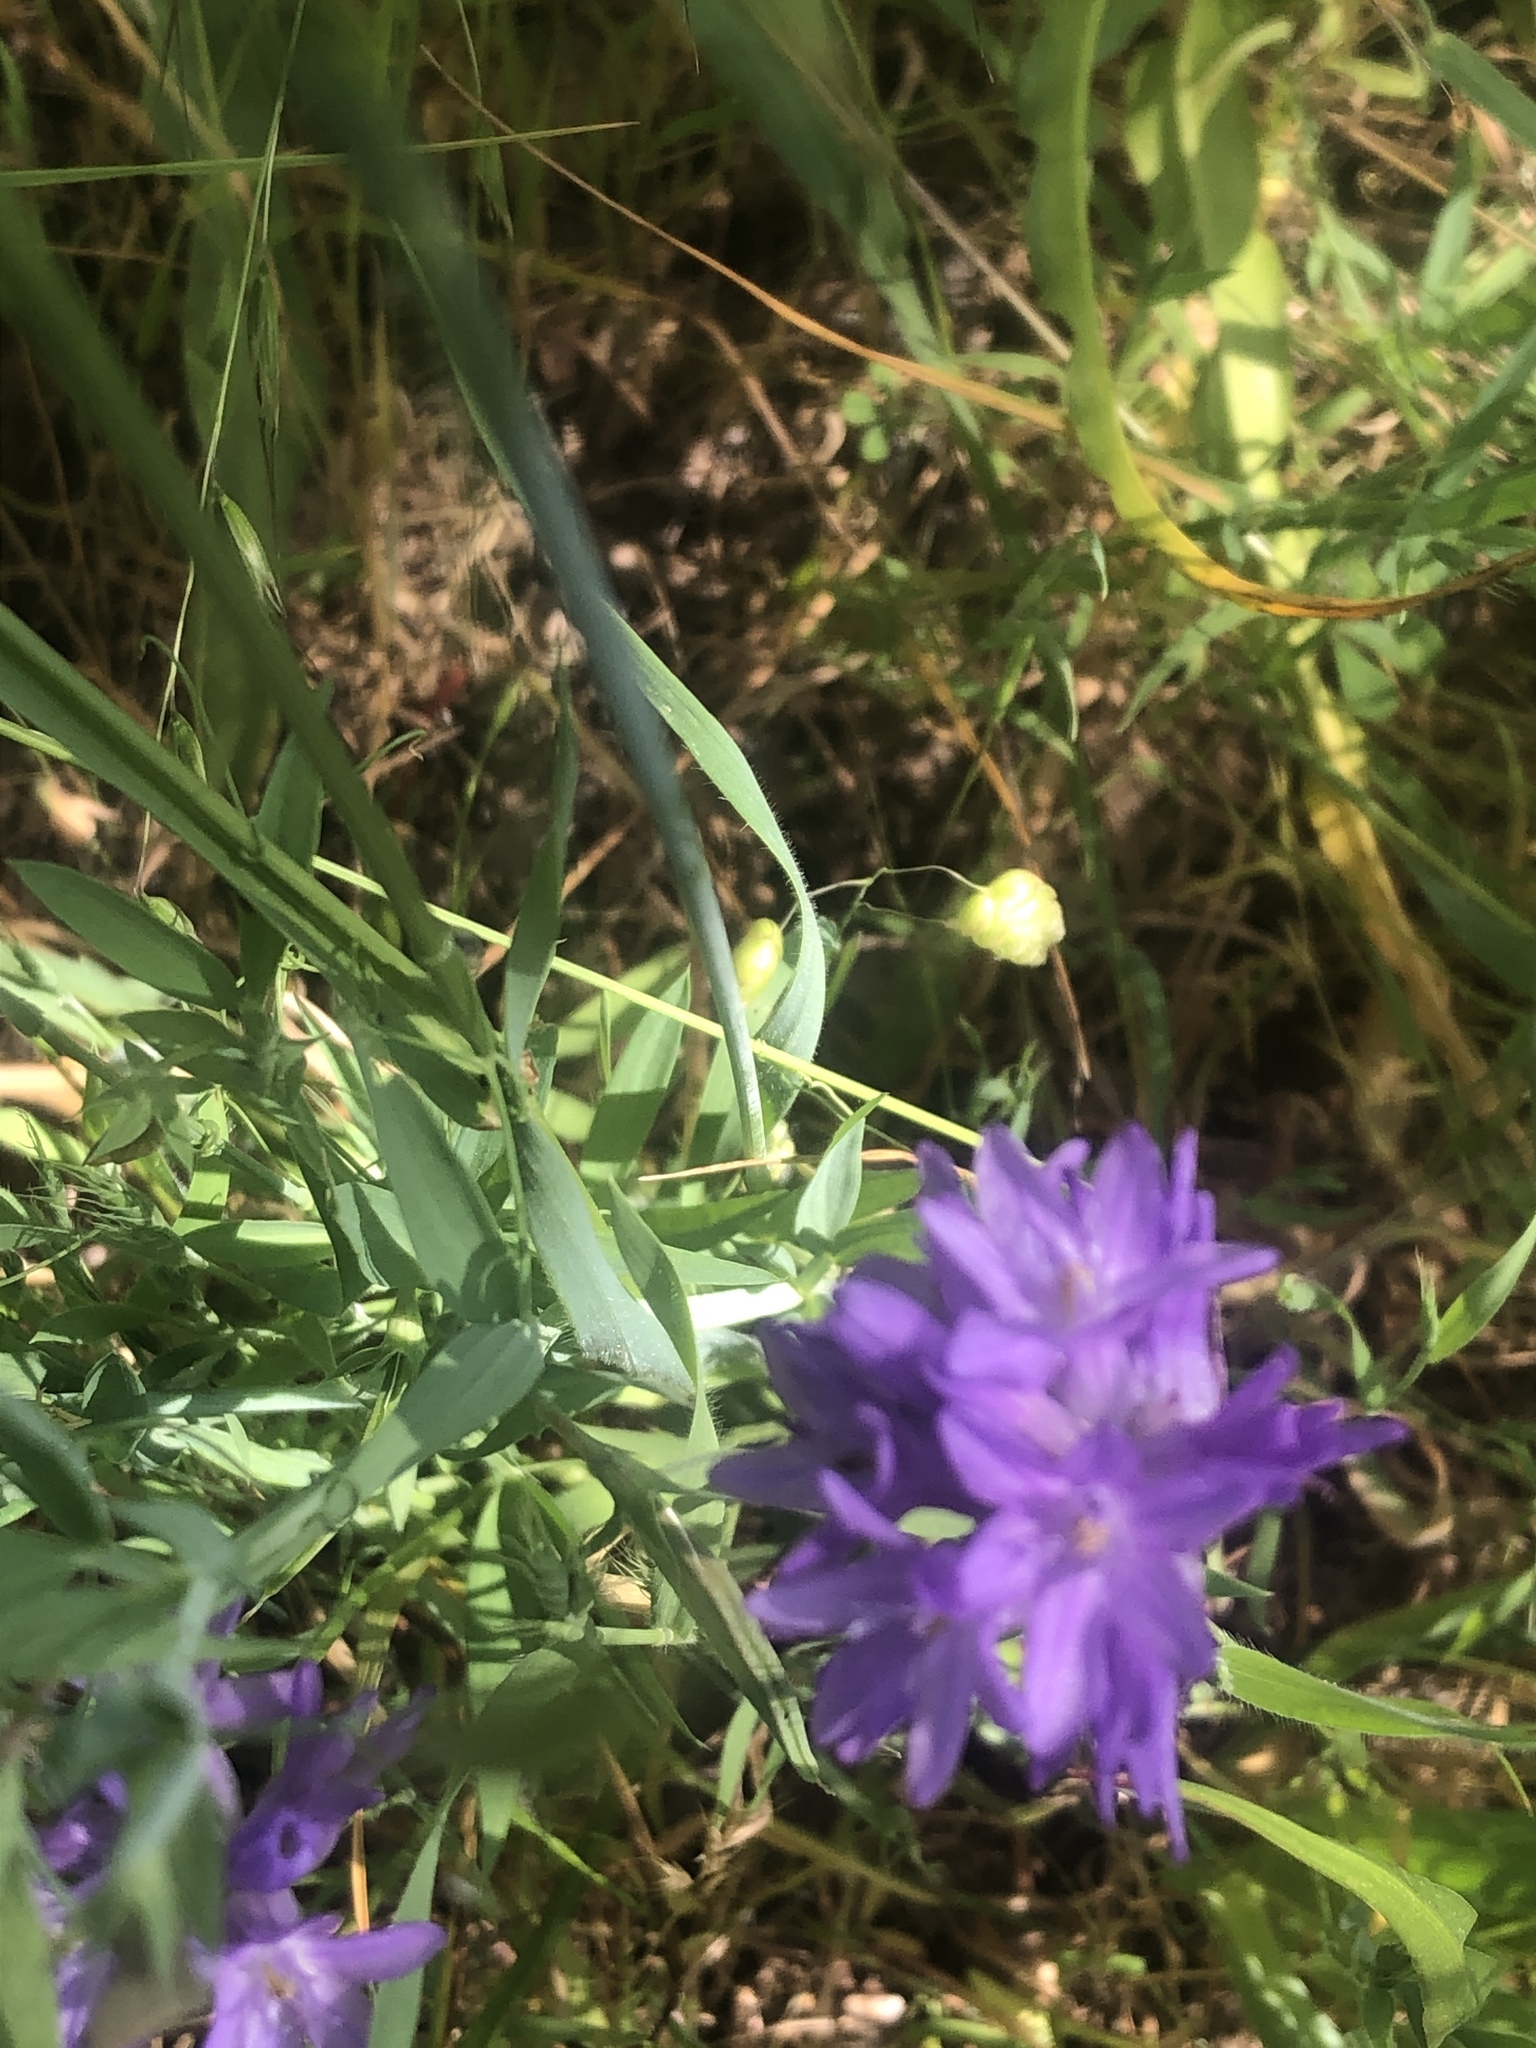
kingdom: Plantae
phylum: Tracheophyta
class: Liliopsida
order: Asparagales
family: Asparagaceae
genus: Dichelostemma
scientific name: Dichelostemma congestum
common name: Fork-tooth ookow
